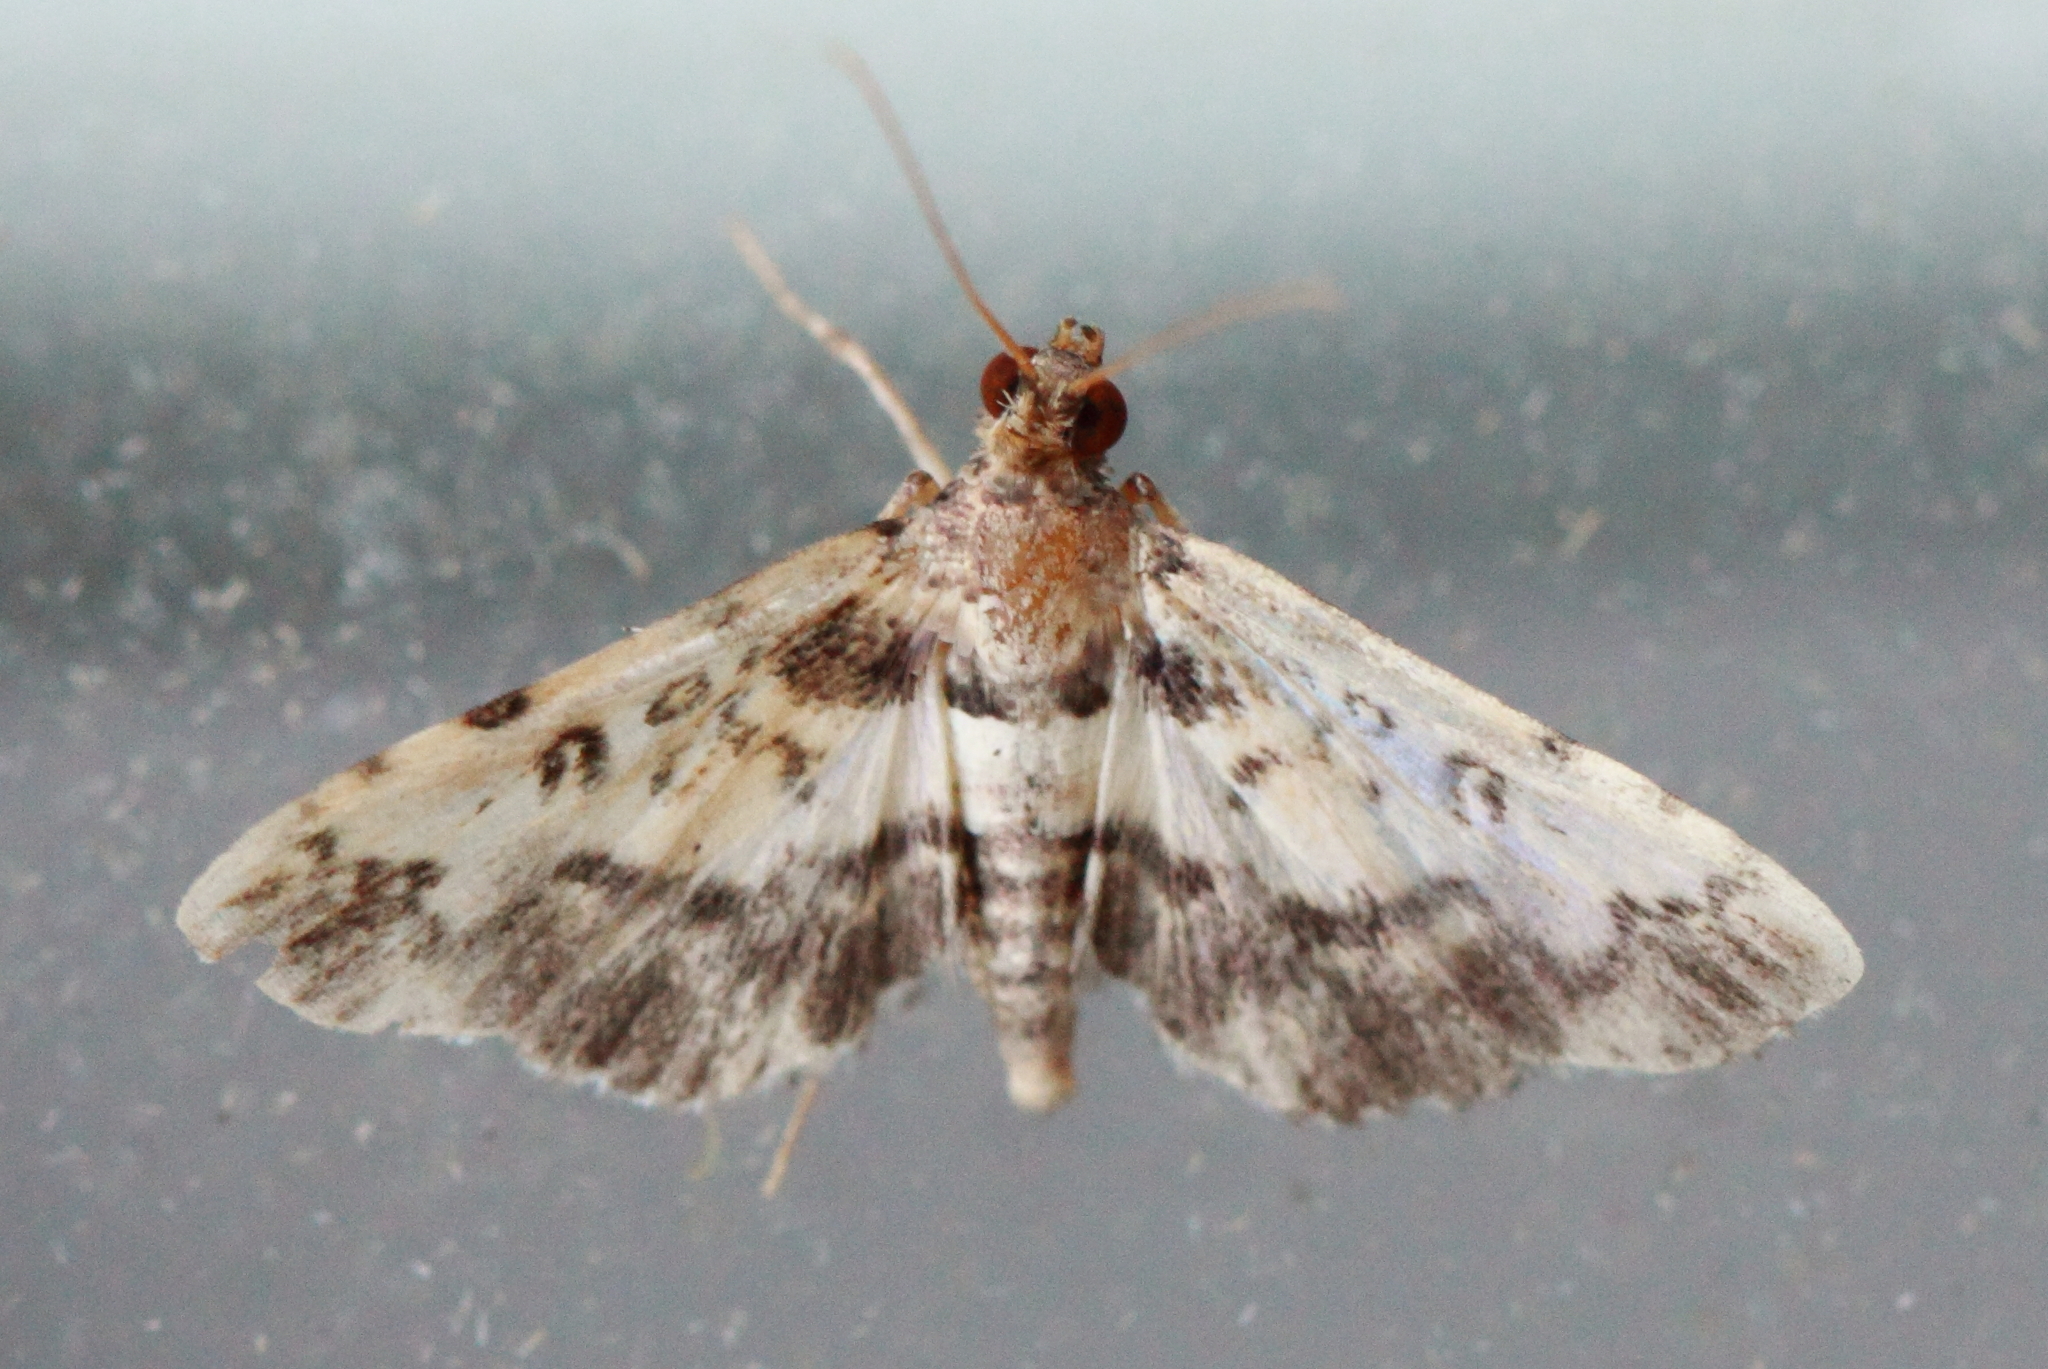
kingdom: Animalia
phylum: Arthropoda
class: Insecta
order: Lepidoptera
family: Crambidae
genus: Nacoleia
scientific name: Nacoleia amphicedalis
